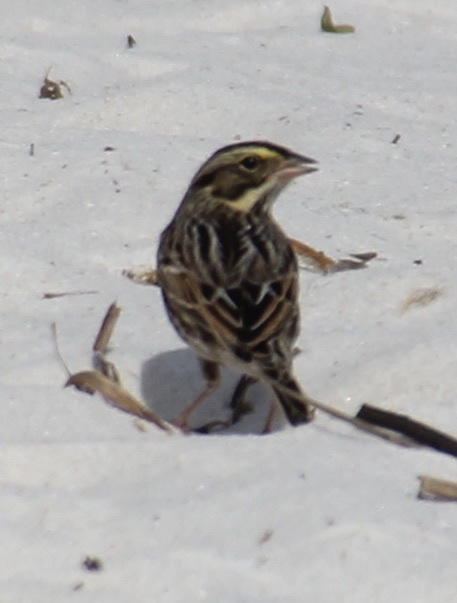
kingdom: Animalia
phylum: Chordata
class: Aves
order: Passeriformes
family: Passerellidae
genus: Passerculus
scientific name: Passerculus sandwichensis
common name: Savannah sparrow
